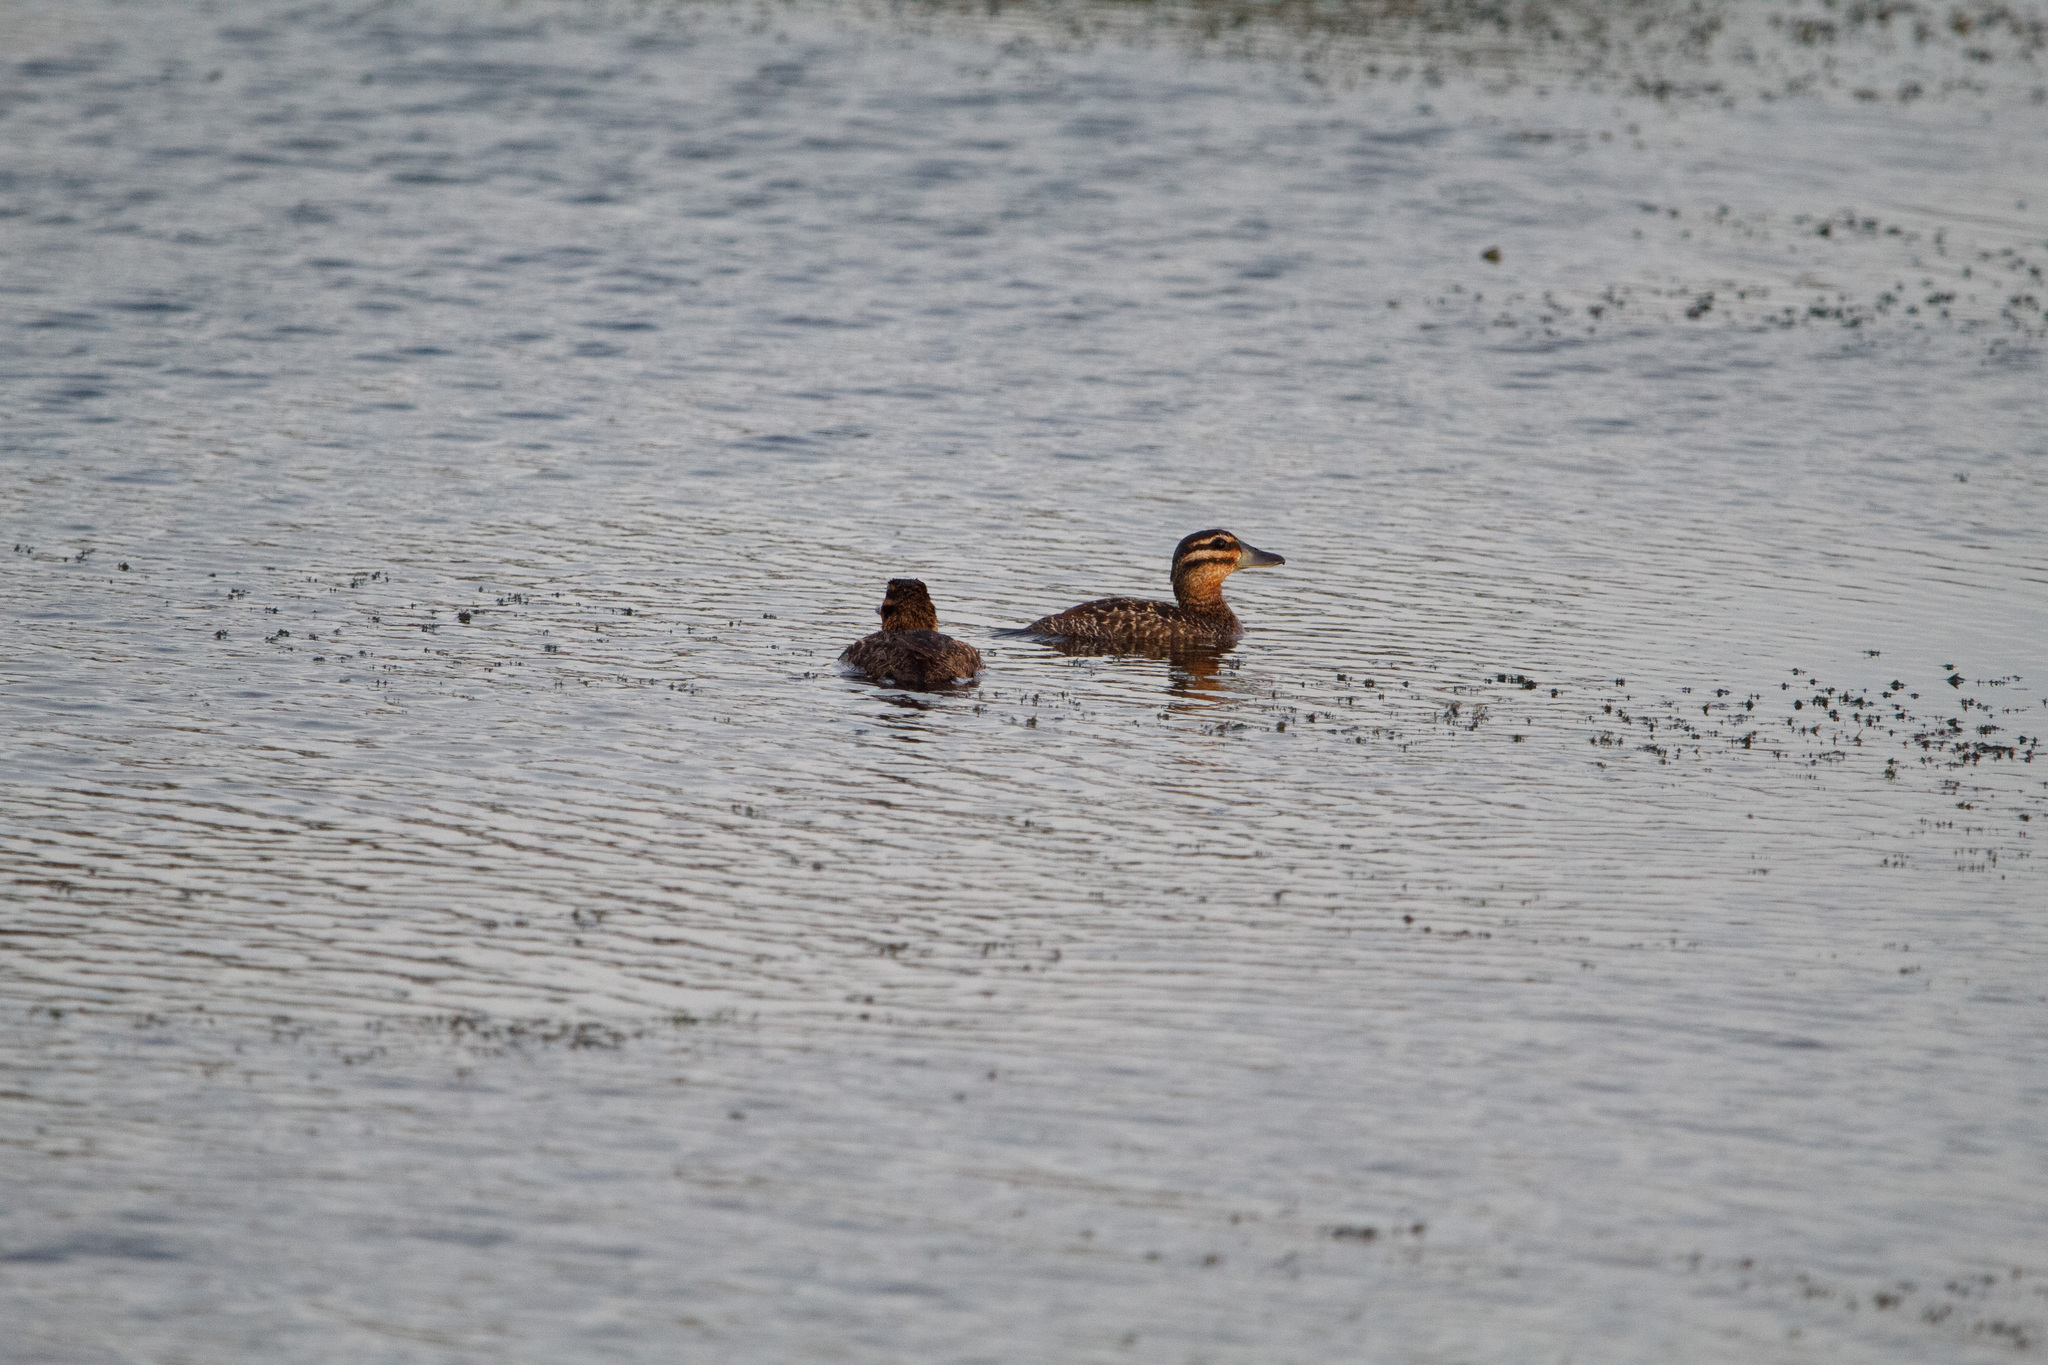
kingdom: Animalia
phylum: Chordata
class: Aves
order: Anseriformes
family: Anatidae
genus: Nomonyx
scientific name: Nomonyx dominicus
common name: Masked duck
